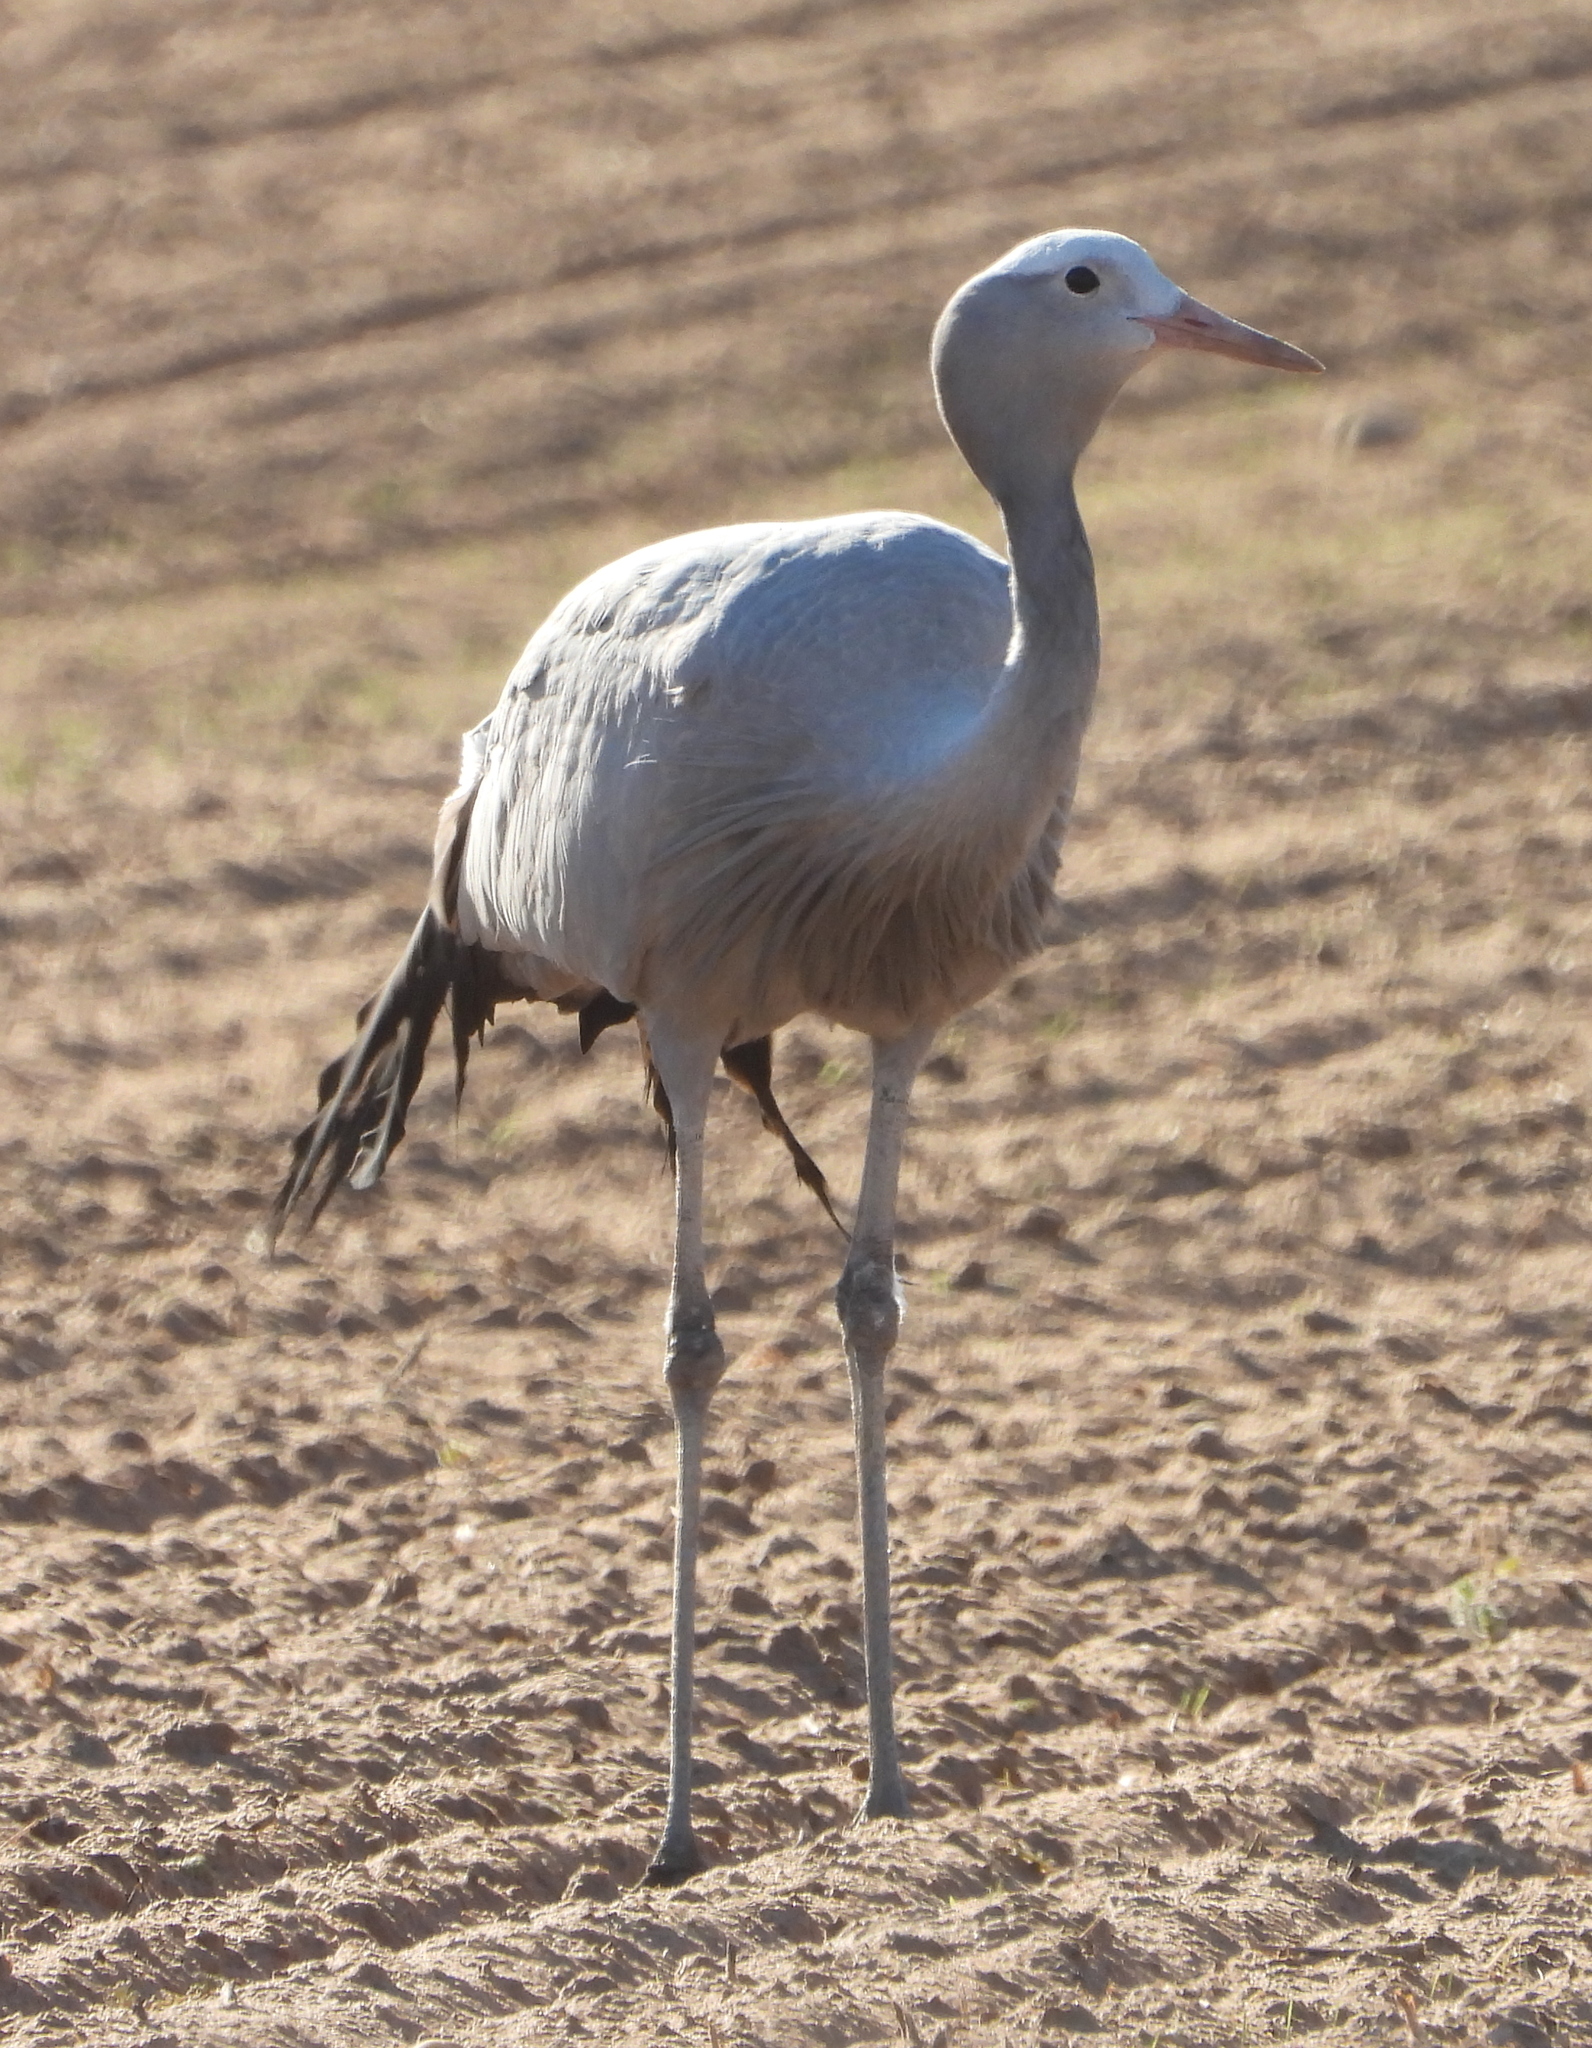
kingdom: Animalia
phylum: Chordata
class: Aves
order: Gruiformes
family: Gruidae
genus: Anthropoides
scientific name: Anthropoides paradiseus
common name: Blue crane
